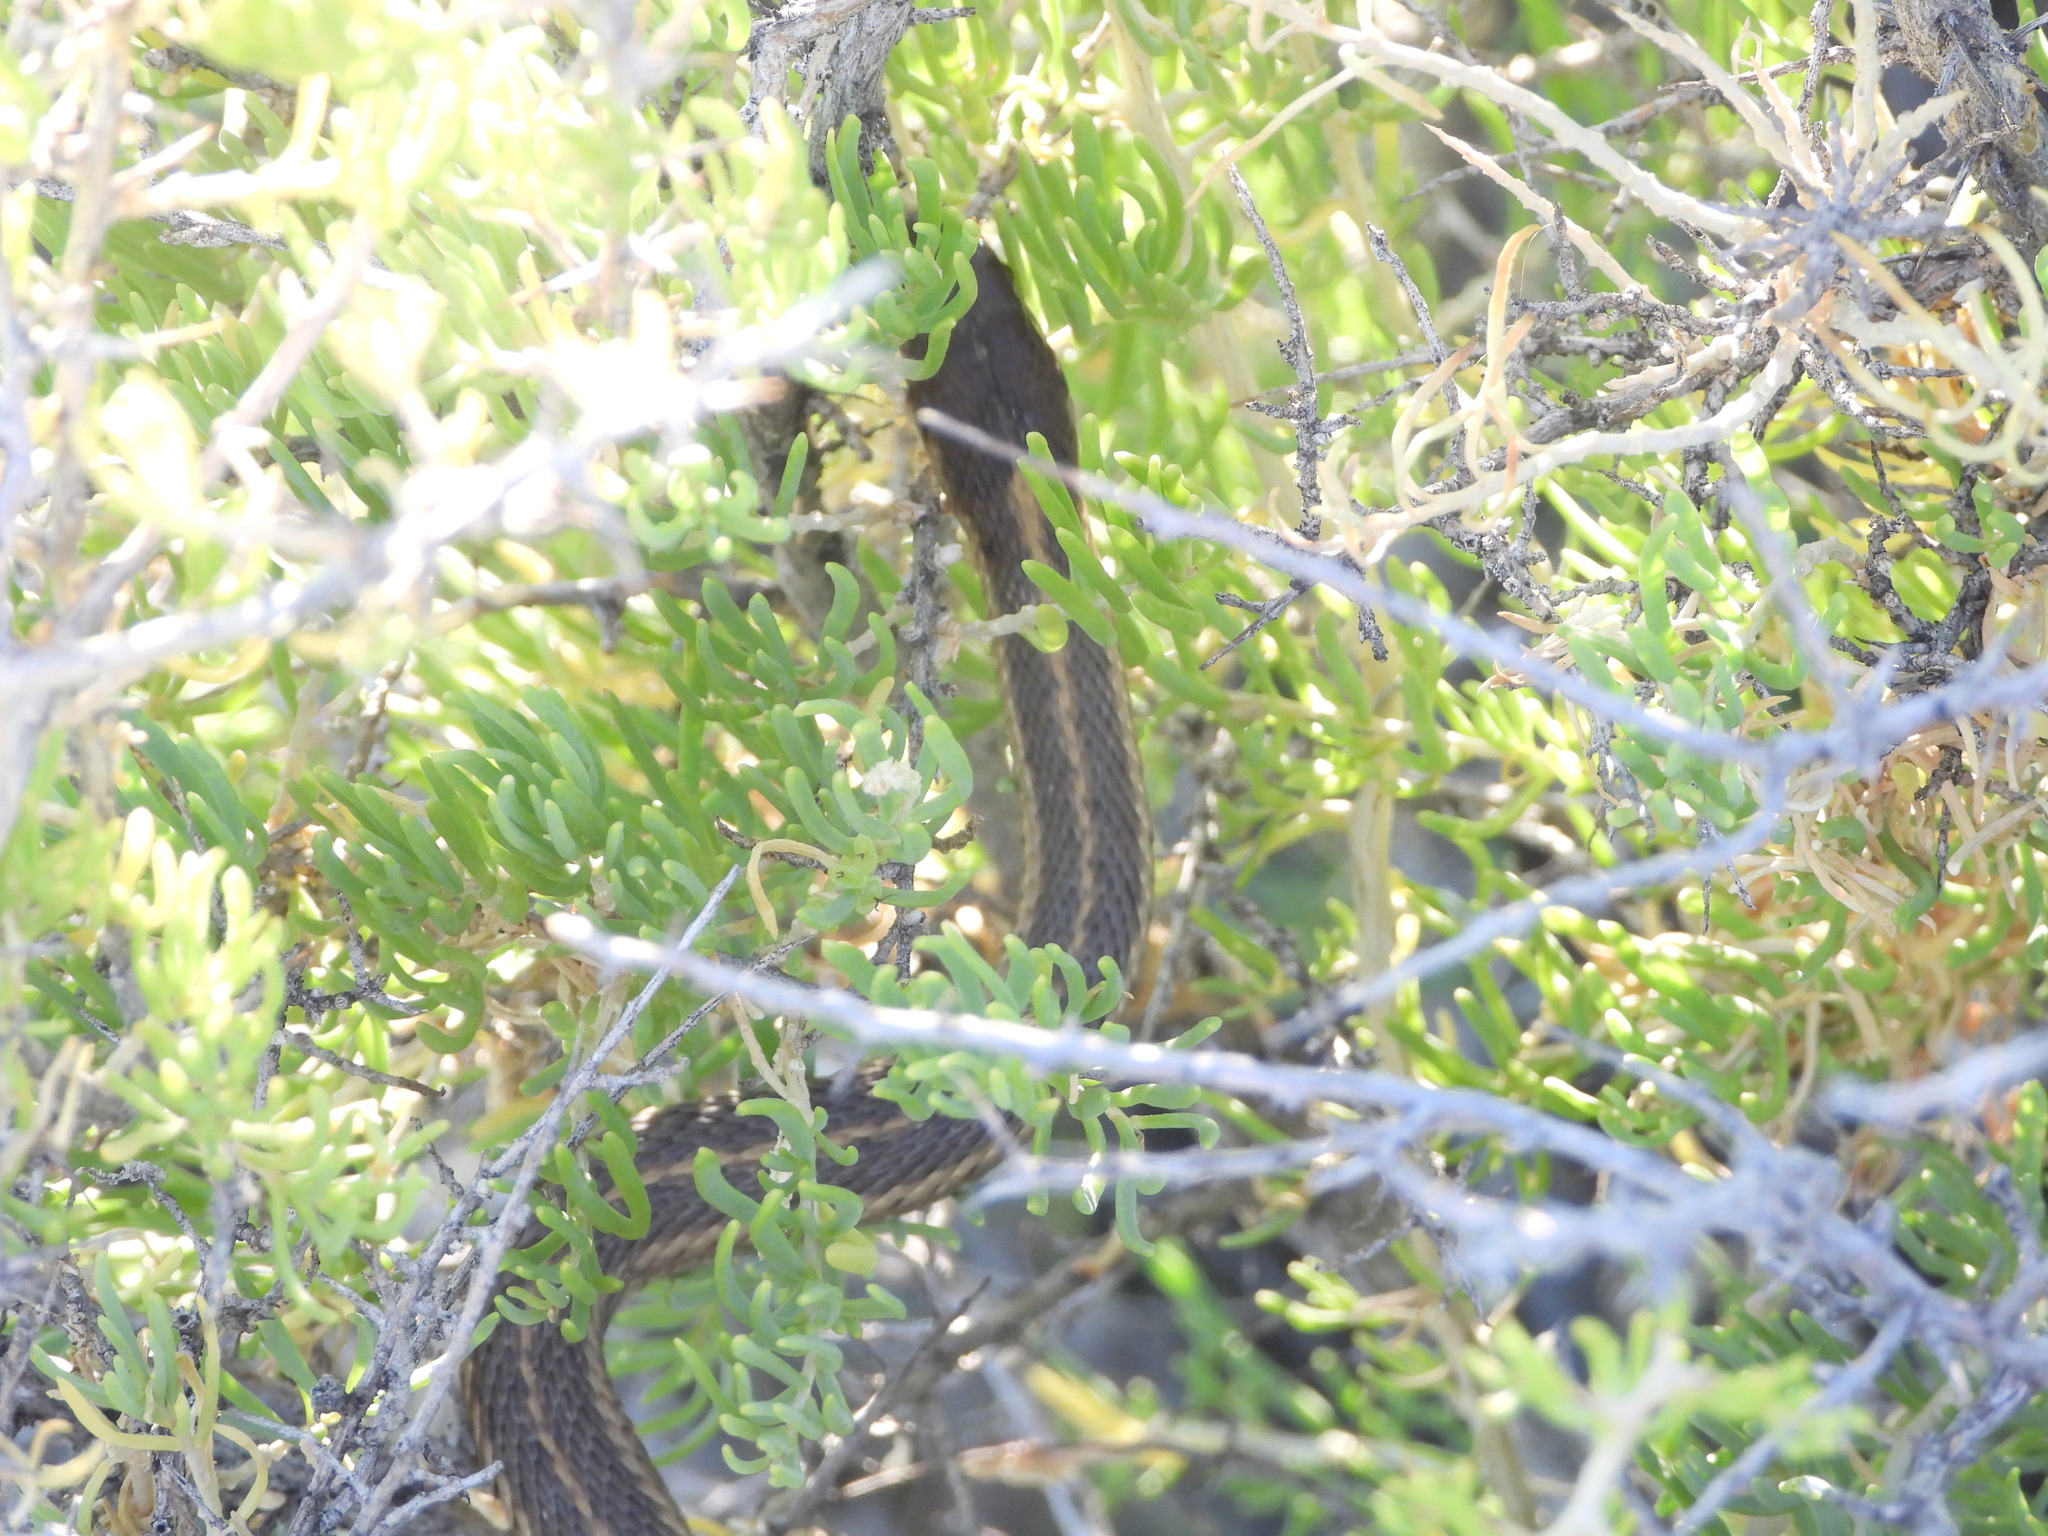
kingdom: Plantae
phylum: Tracheophyta
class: Magnoliopsida
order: Caryophyllales
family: Sarcobataceae
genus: Sarcobatus
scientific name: Sarcobatus vermiculatus
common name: Greasewood
